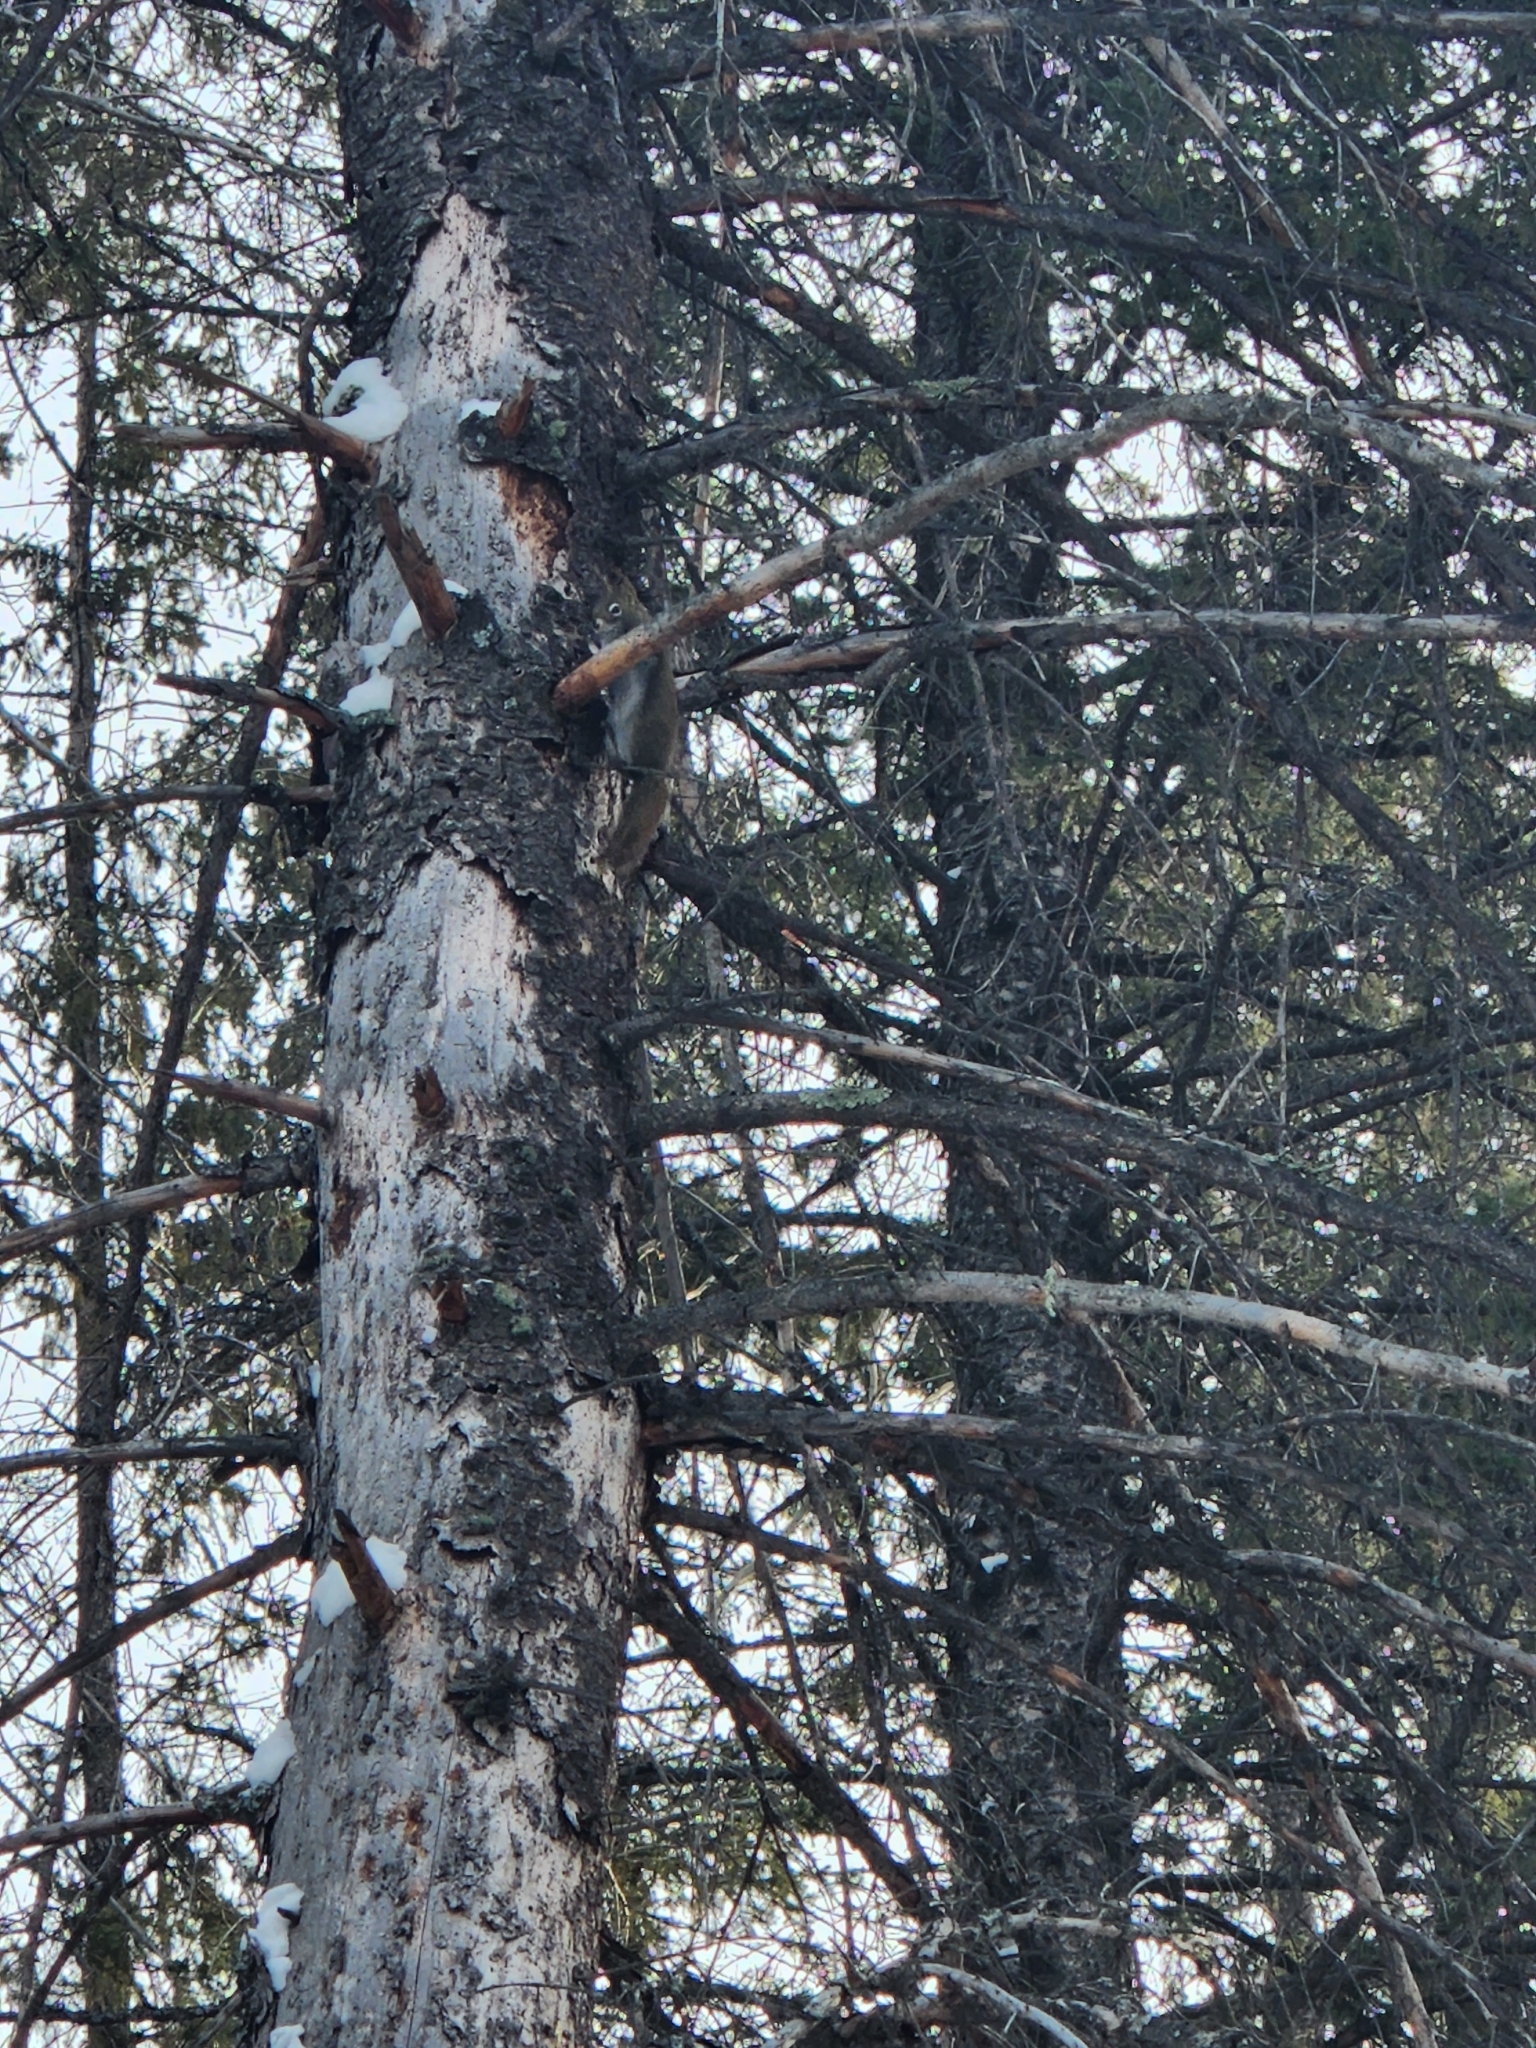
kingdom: Animalia
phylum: Chordata
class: Mammalia
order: Rodentia
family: Sciuridae
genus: Tamiasciurus
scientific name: Tamiasciurus hudsonicus
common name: Red squirrel
